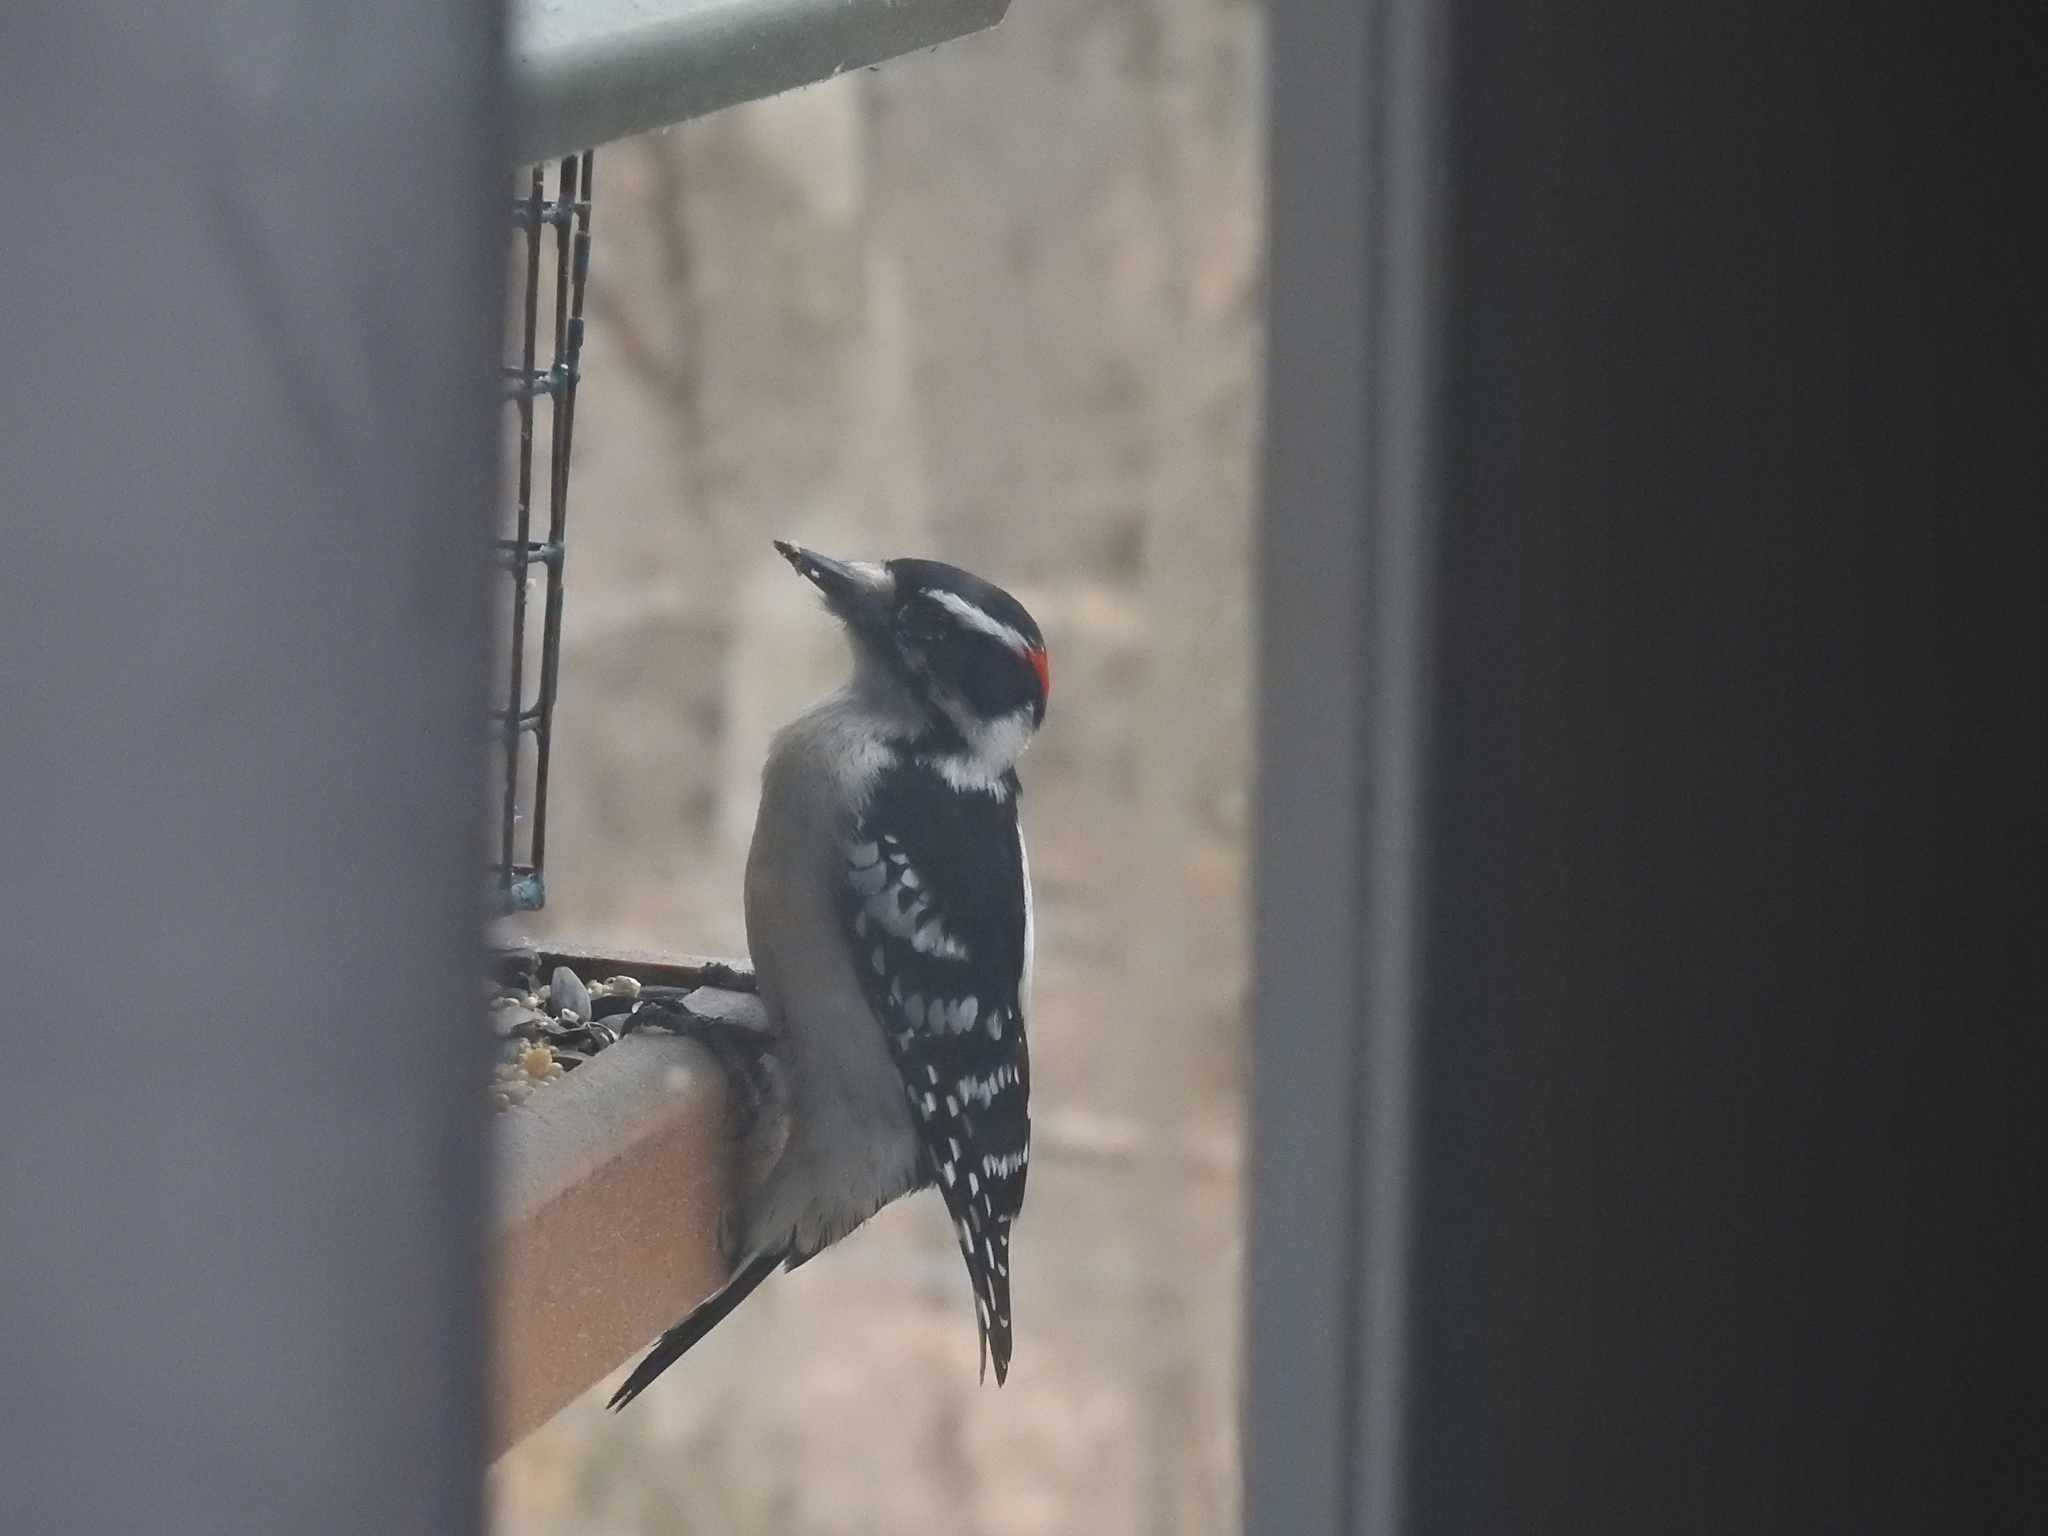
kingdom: Animalia
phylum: Chordata
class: Aves
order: Piciformes
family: Picidae
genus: Dryobates
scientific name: Dryobates pubescens
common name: Downy woodpecker
